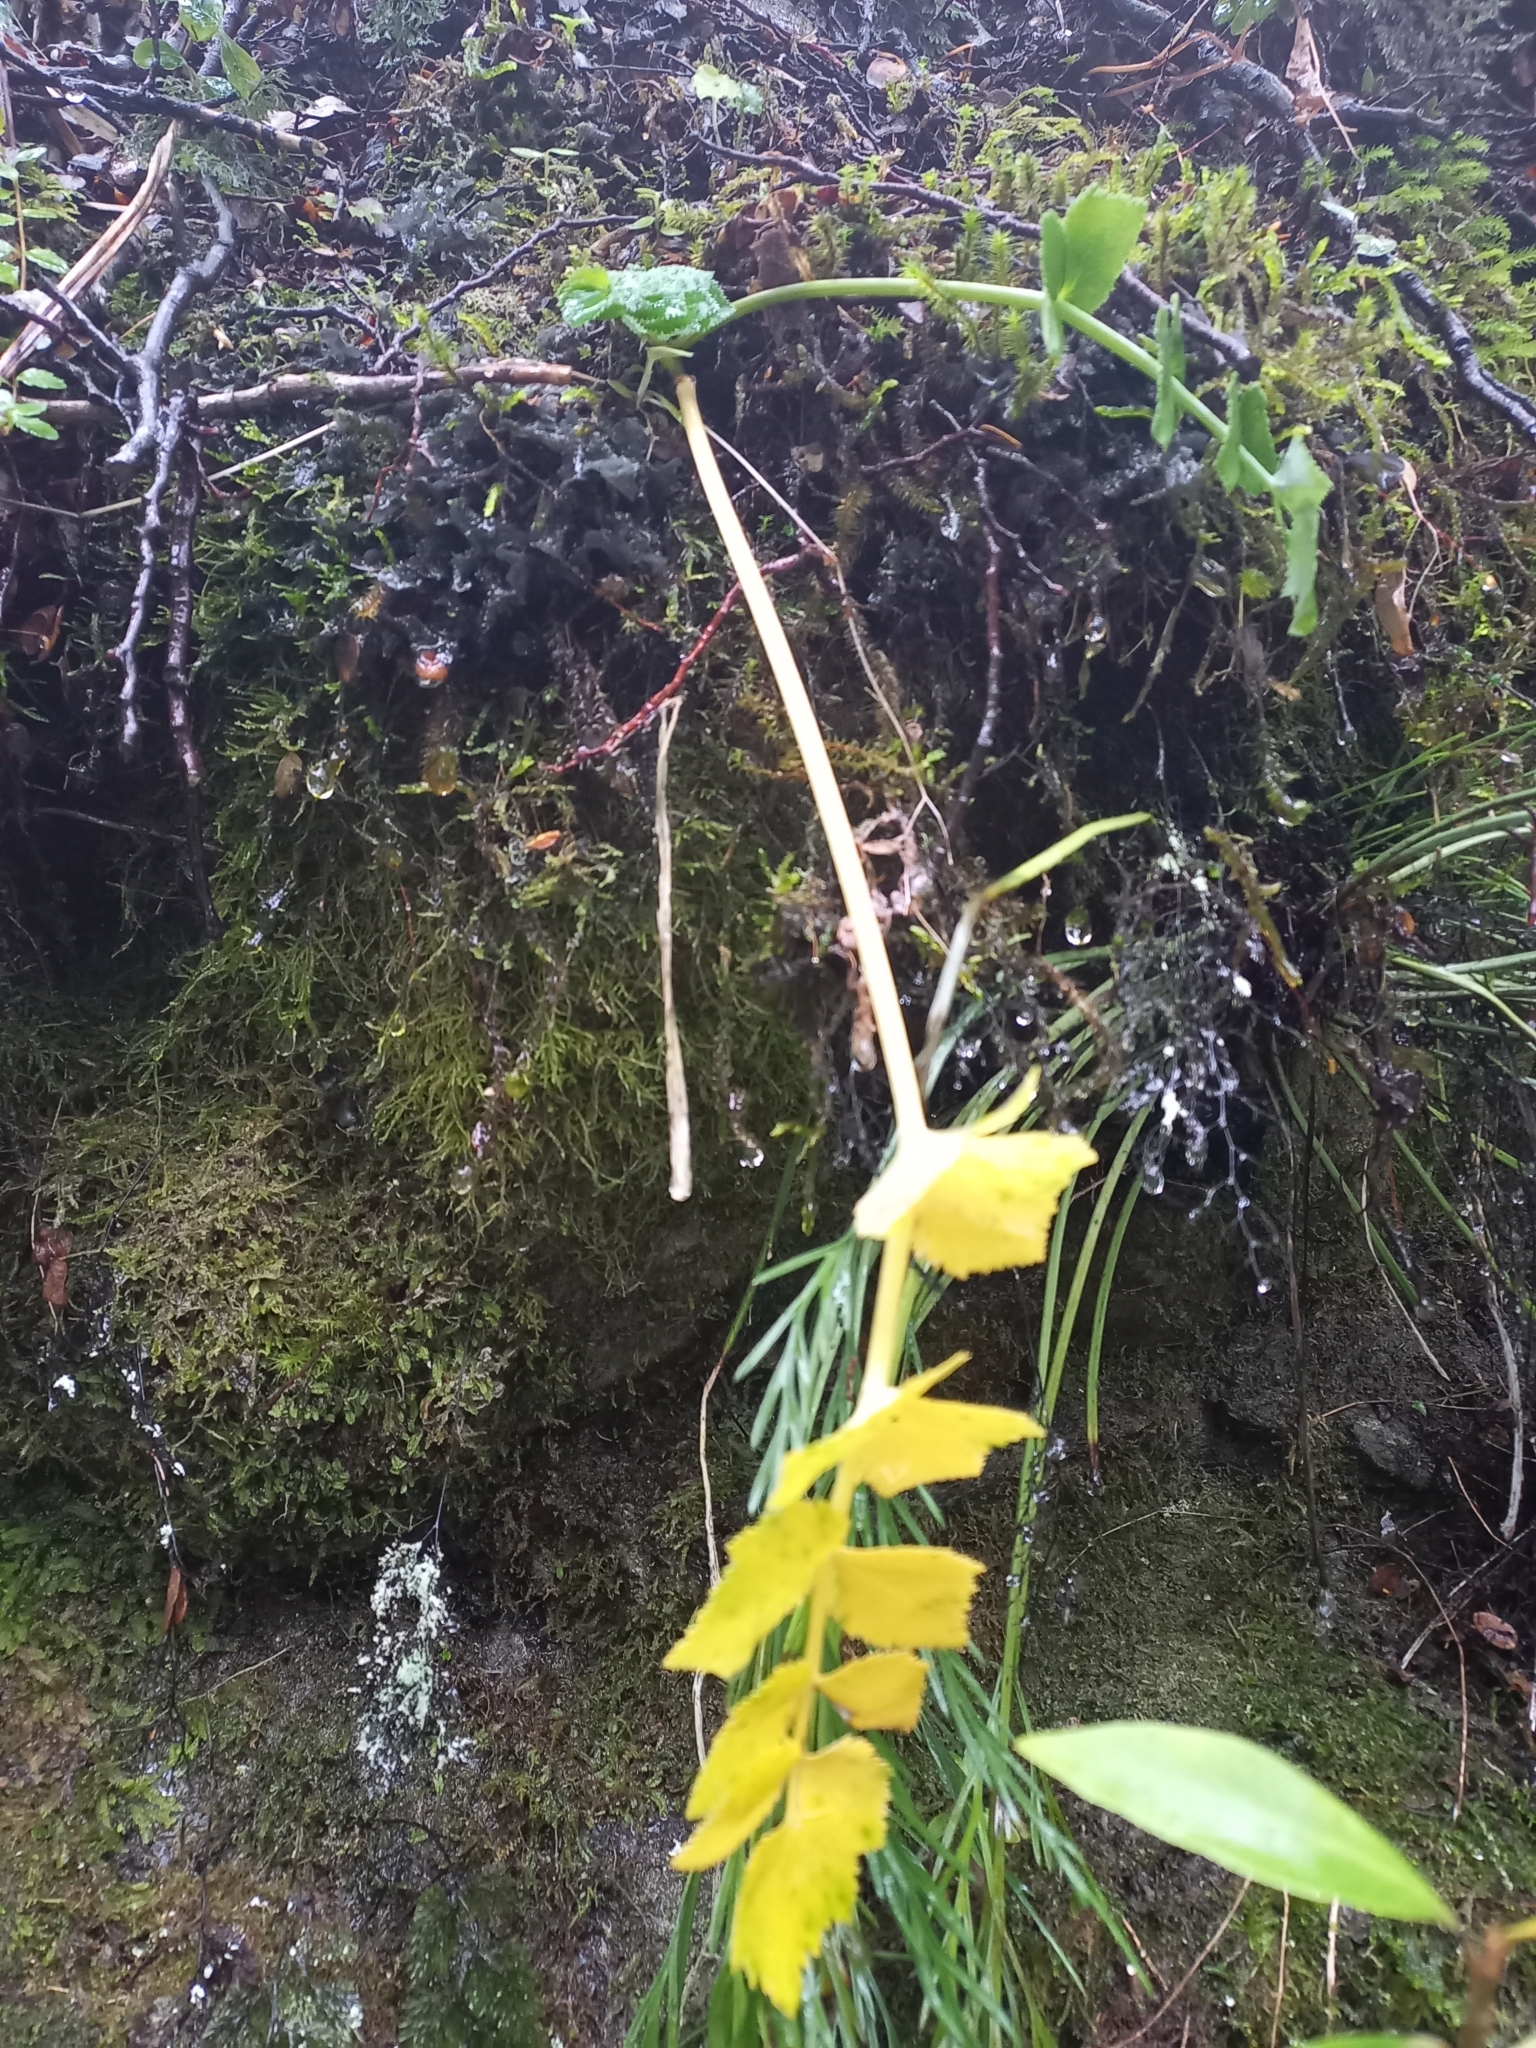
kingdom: Plantae
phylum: Tracheophyta
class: Magnoliopsida
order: Apiales
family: Apiaceae
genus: Gingidia
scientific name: Gingidia montana
